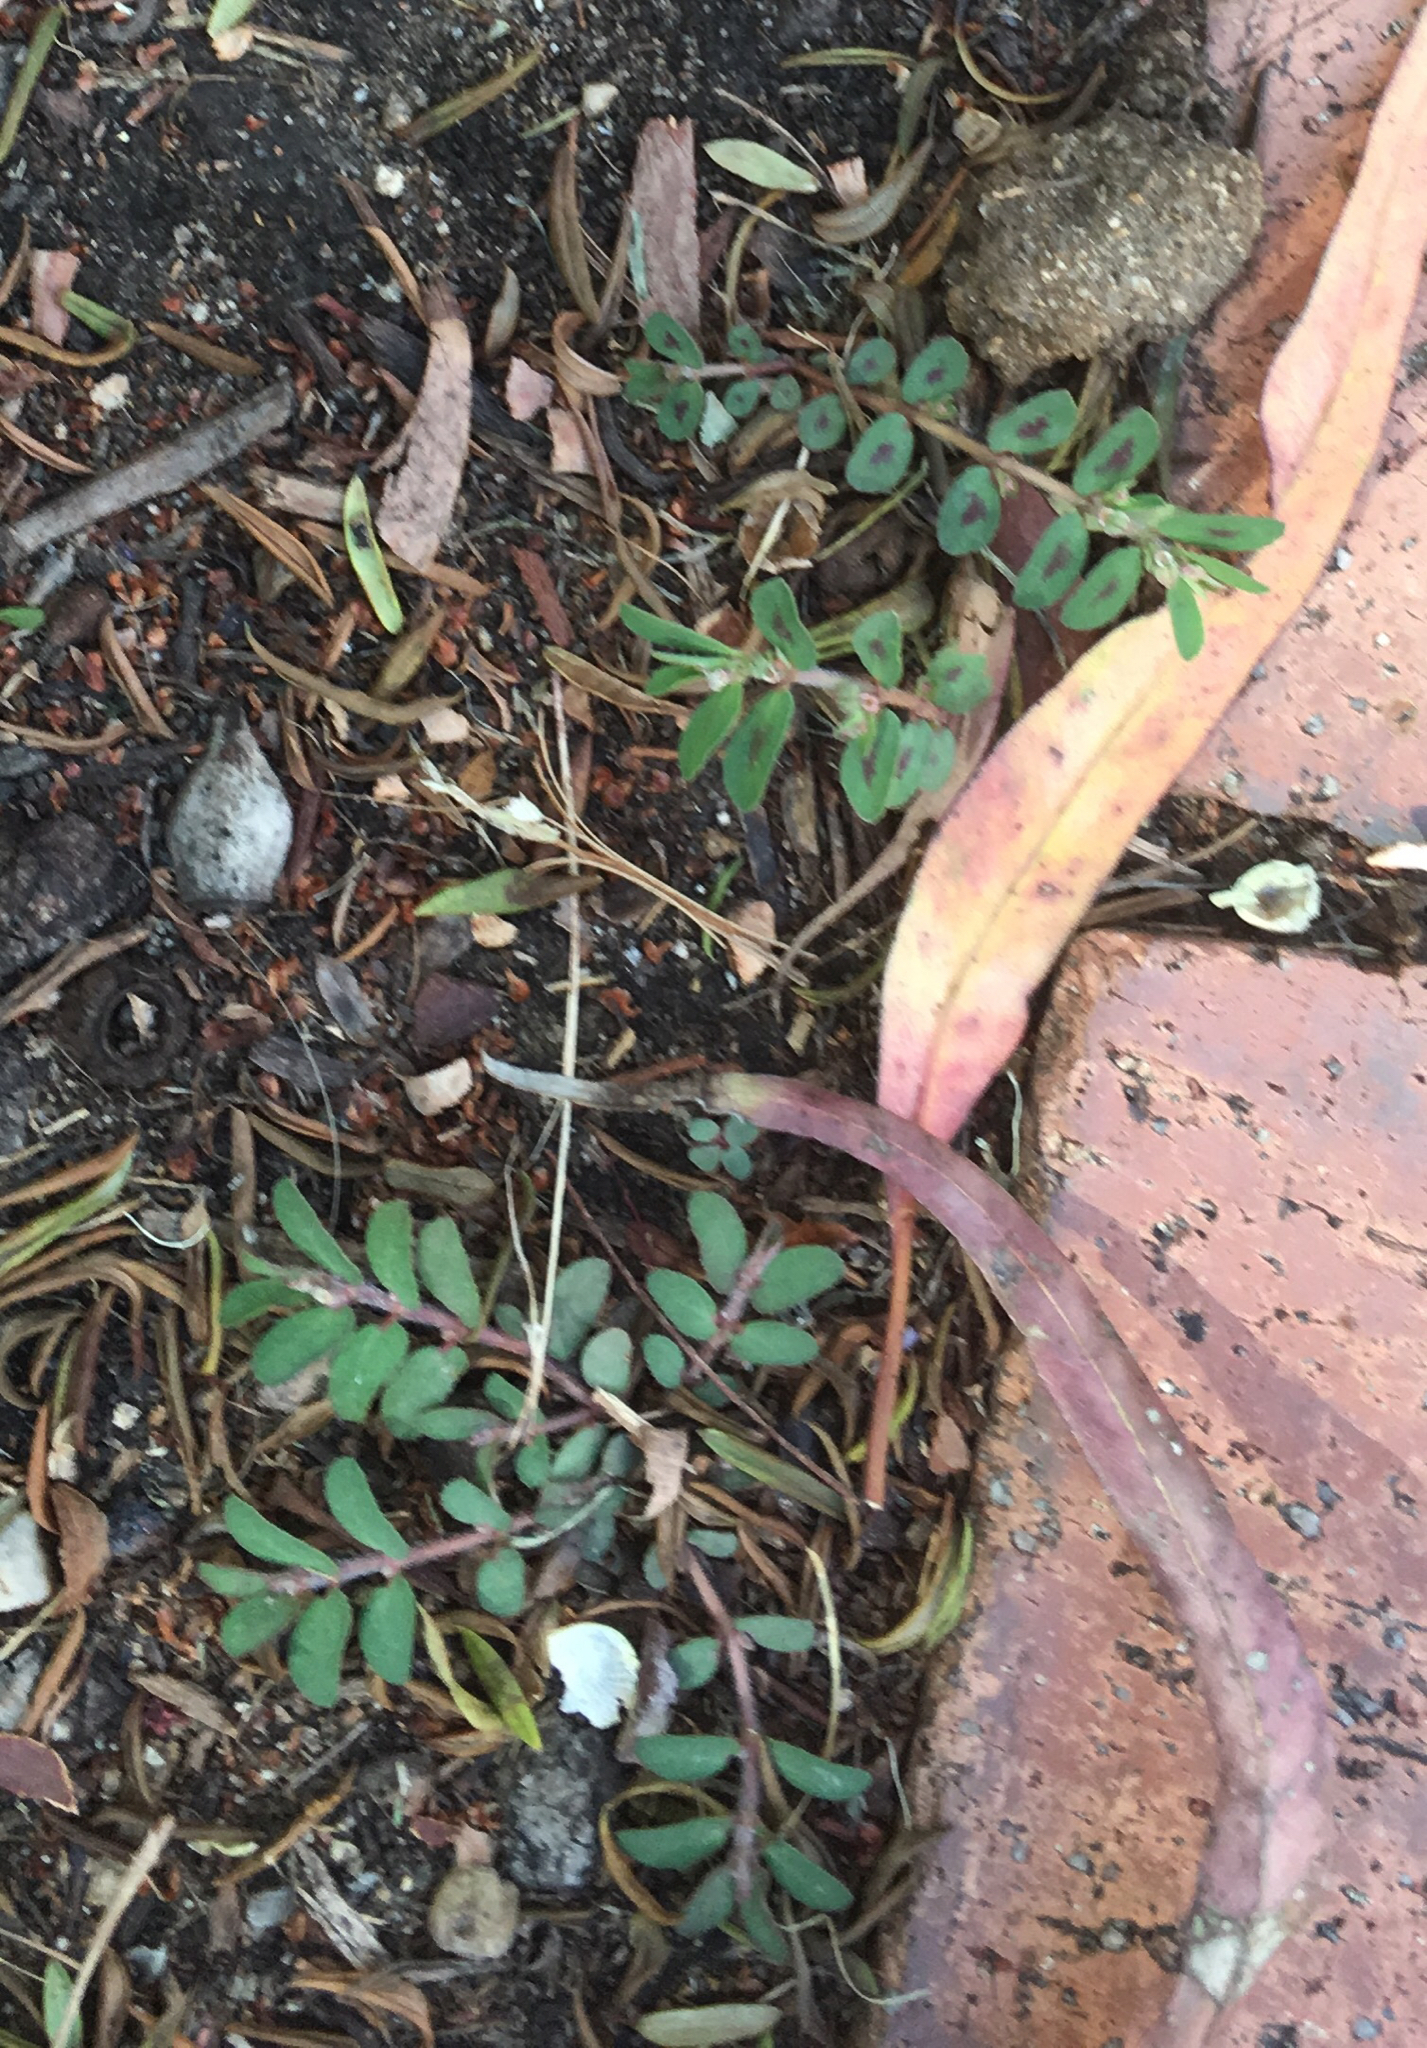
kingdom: Plantae
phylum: Tracheophyta
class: Magnoliopsida
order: Malpighiales
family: Euphorbiaceae
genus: Euphorbia
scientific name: Euphorbia maculata
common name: Spotted spurge
